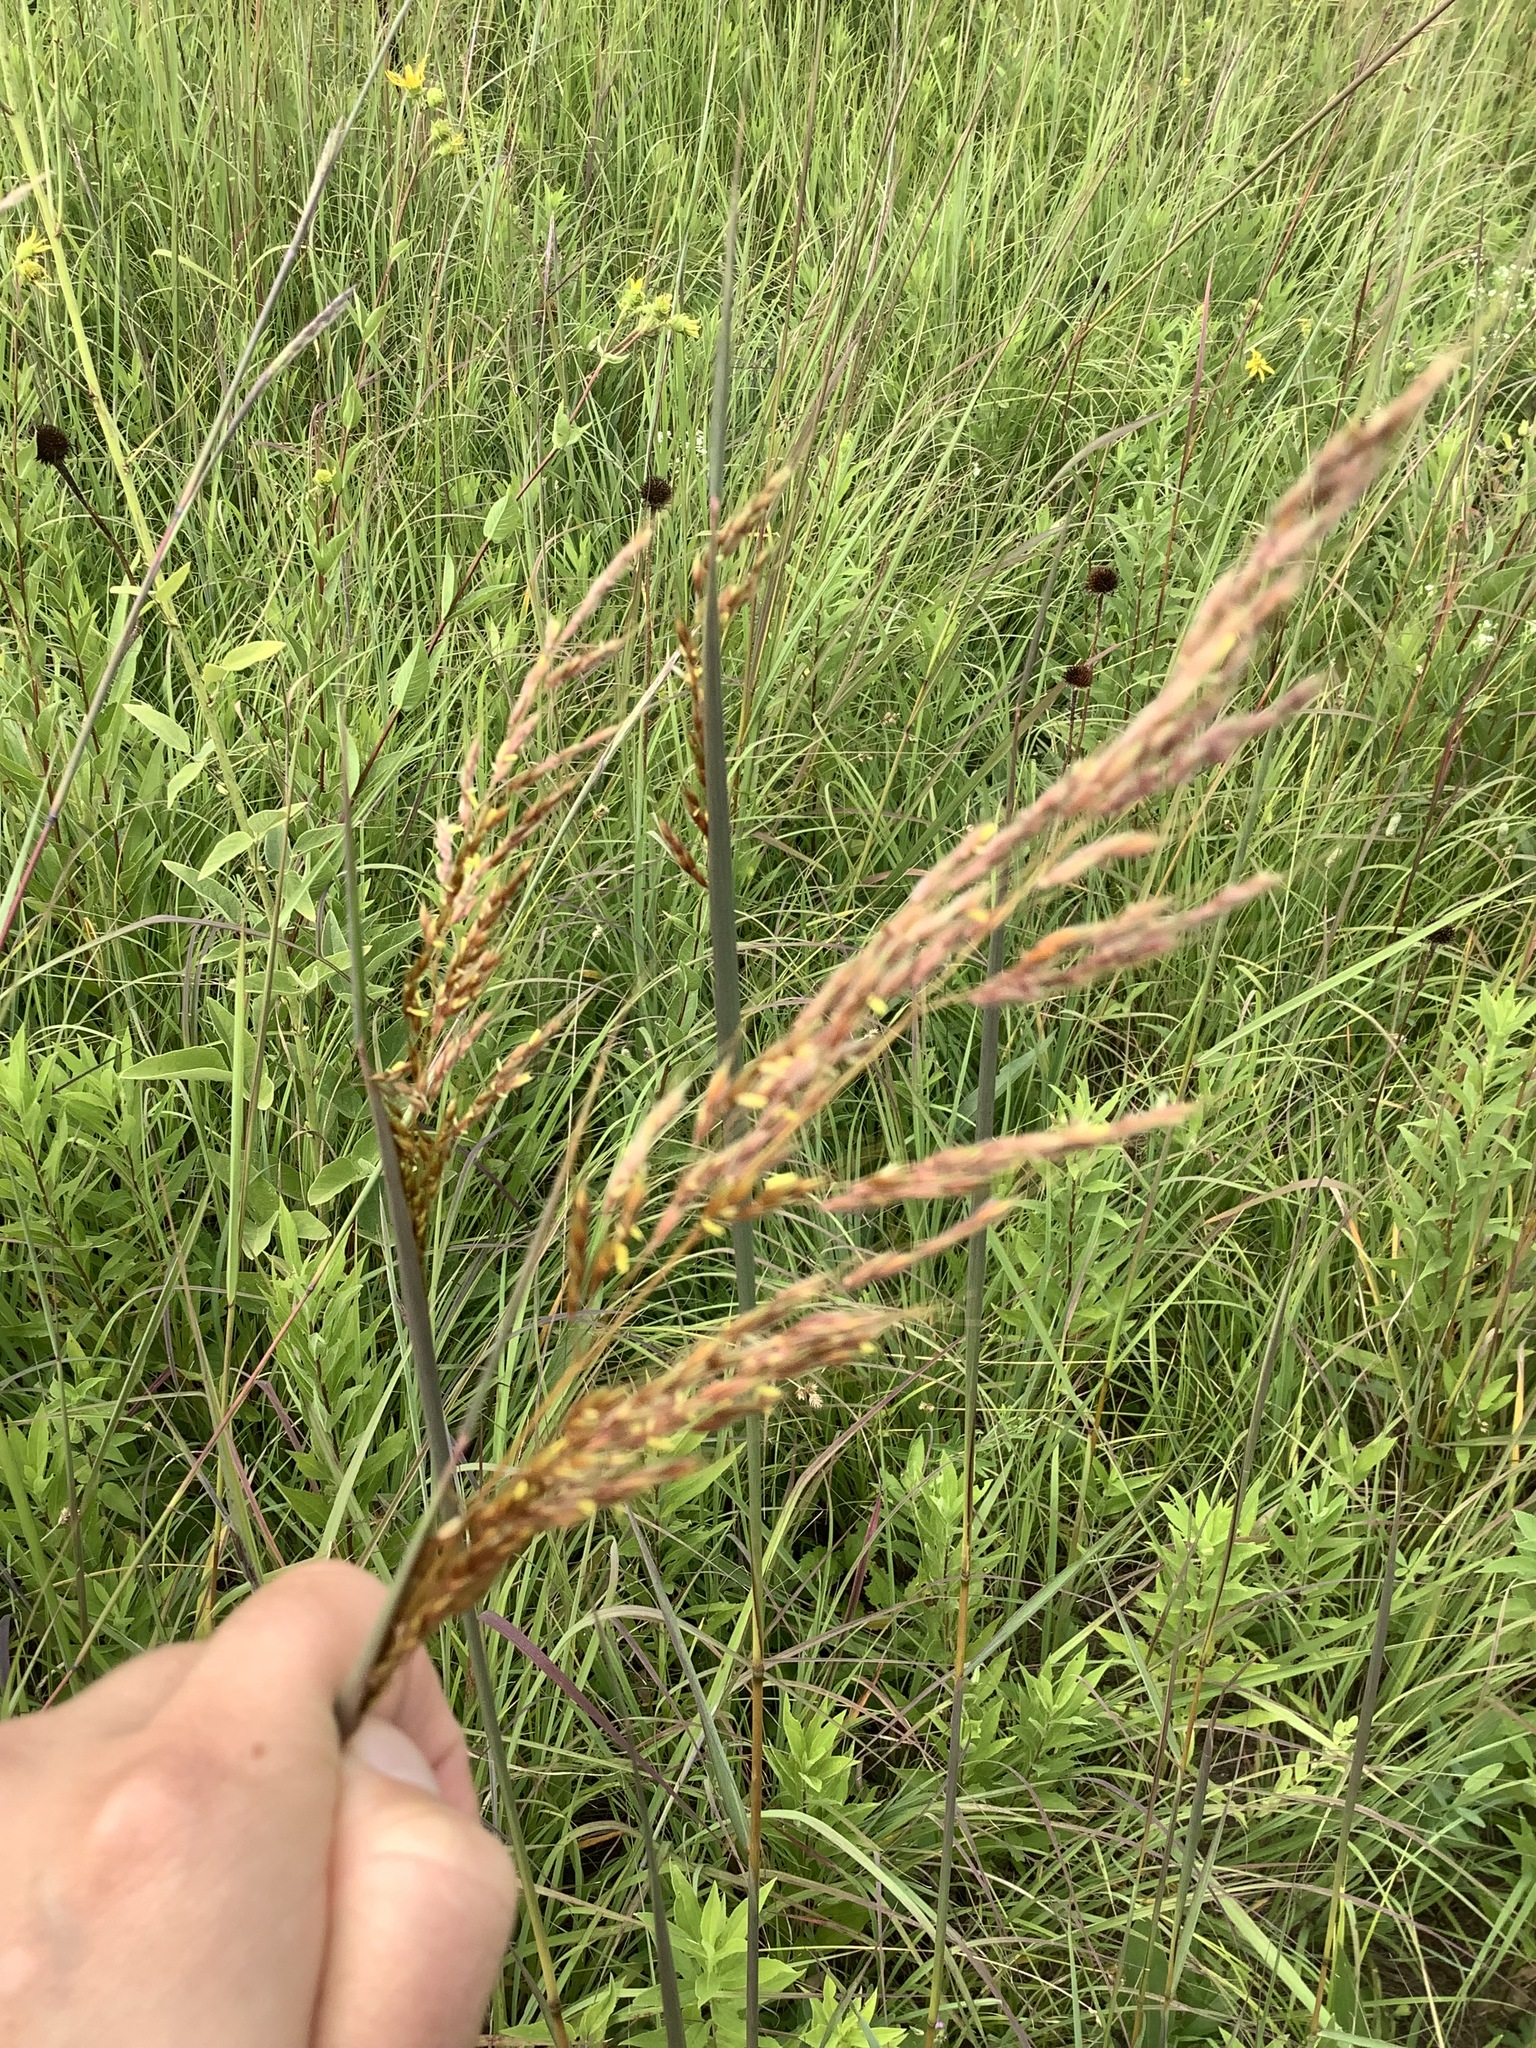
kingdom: Plantae
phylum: Tracheophyta
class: Liliopsida
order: Poales
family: Poaceae
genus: Sorghastrum
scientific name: Sorghastrum nutans
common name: Indian grass
